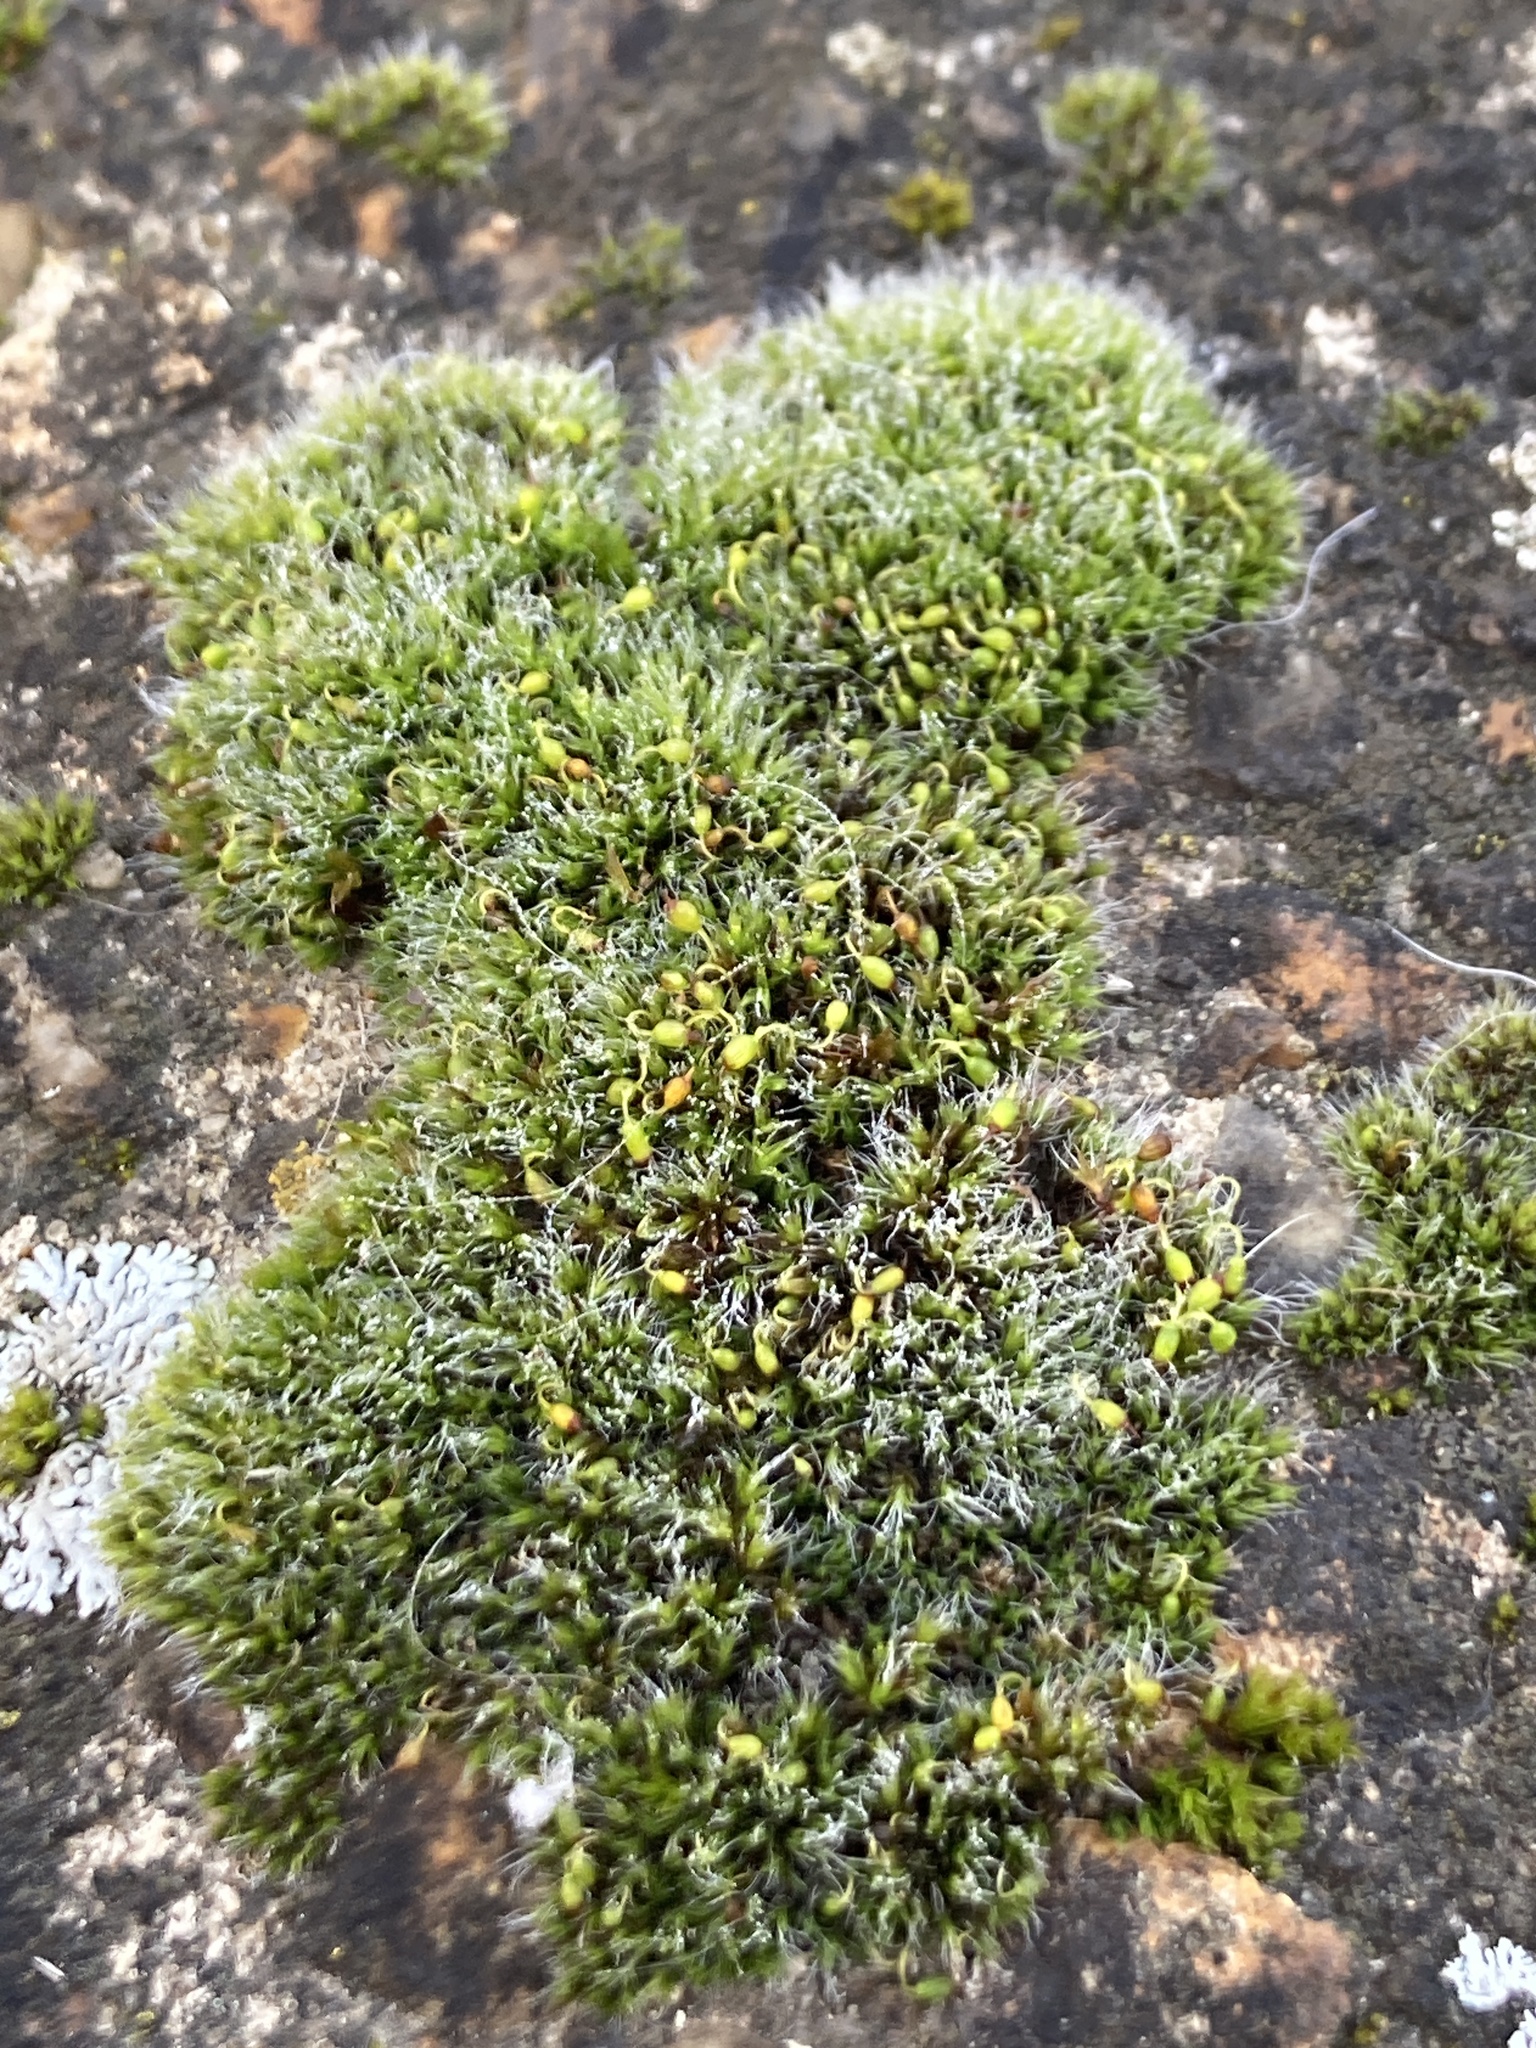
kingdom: Plantae
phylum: Bryophyta
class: Bryopsida
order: Grimmiales
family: Grimmiaceae
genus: Grimmia
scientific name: Grimmia pulvinata
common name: Grey-cushioned grimmia
